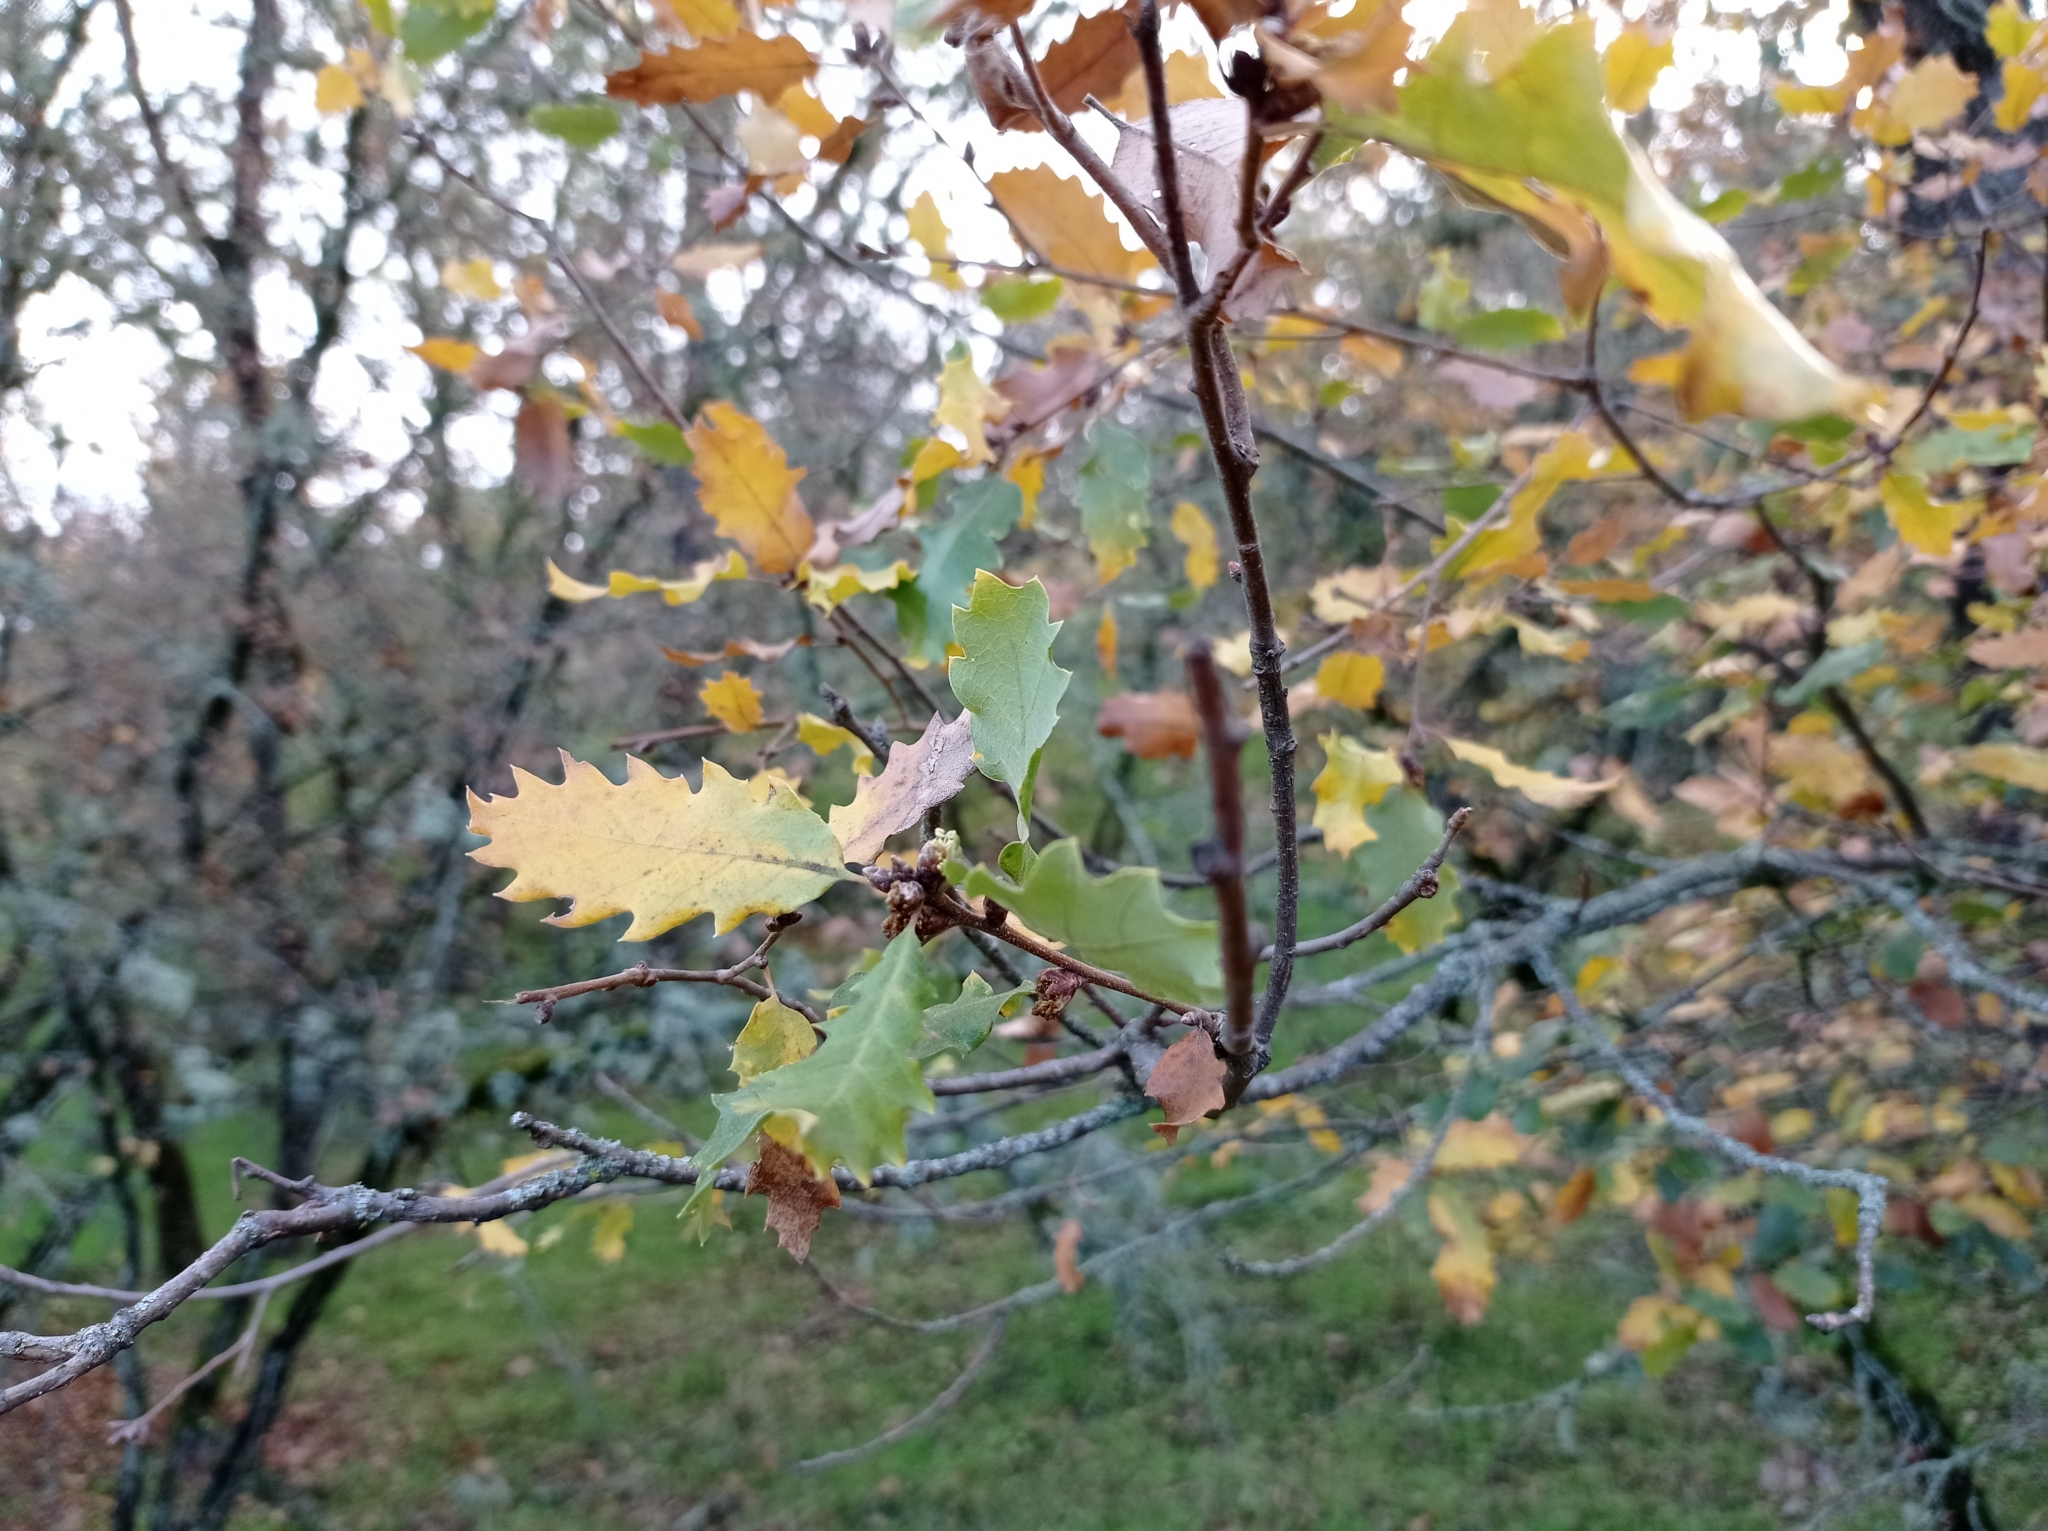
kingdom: Plantae
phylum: Tracheophyta
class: Magnoliopsida
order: Fagales
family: Fagaceae
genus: Quercus
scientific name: Quercus faginea
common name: Gall oak tree
